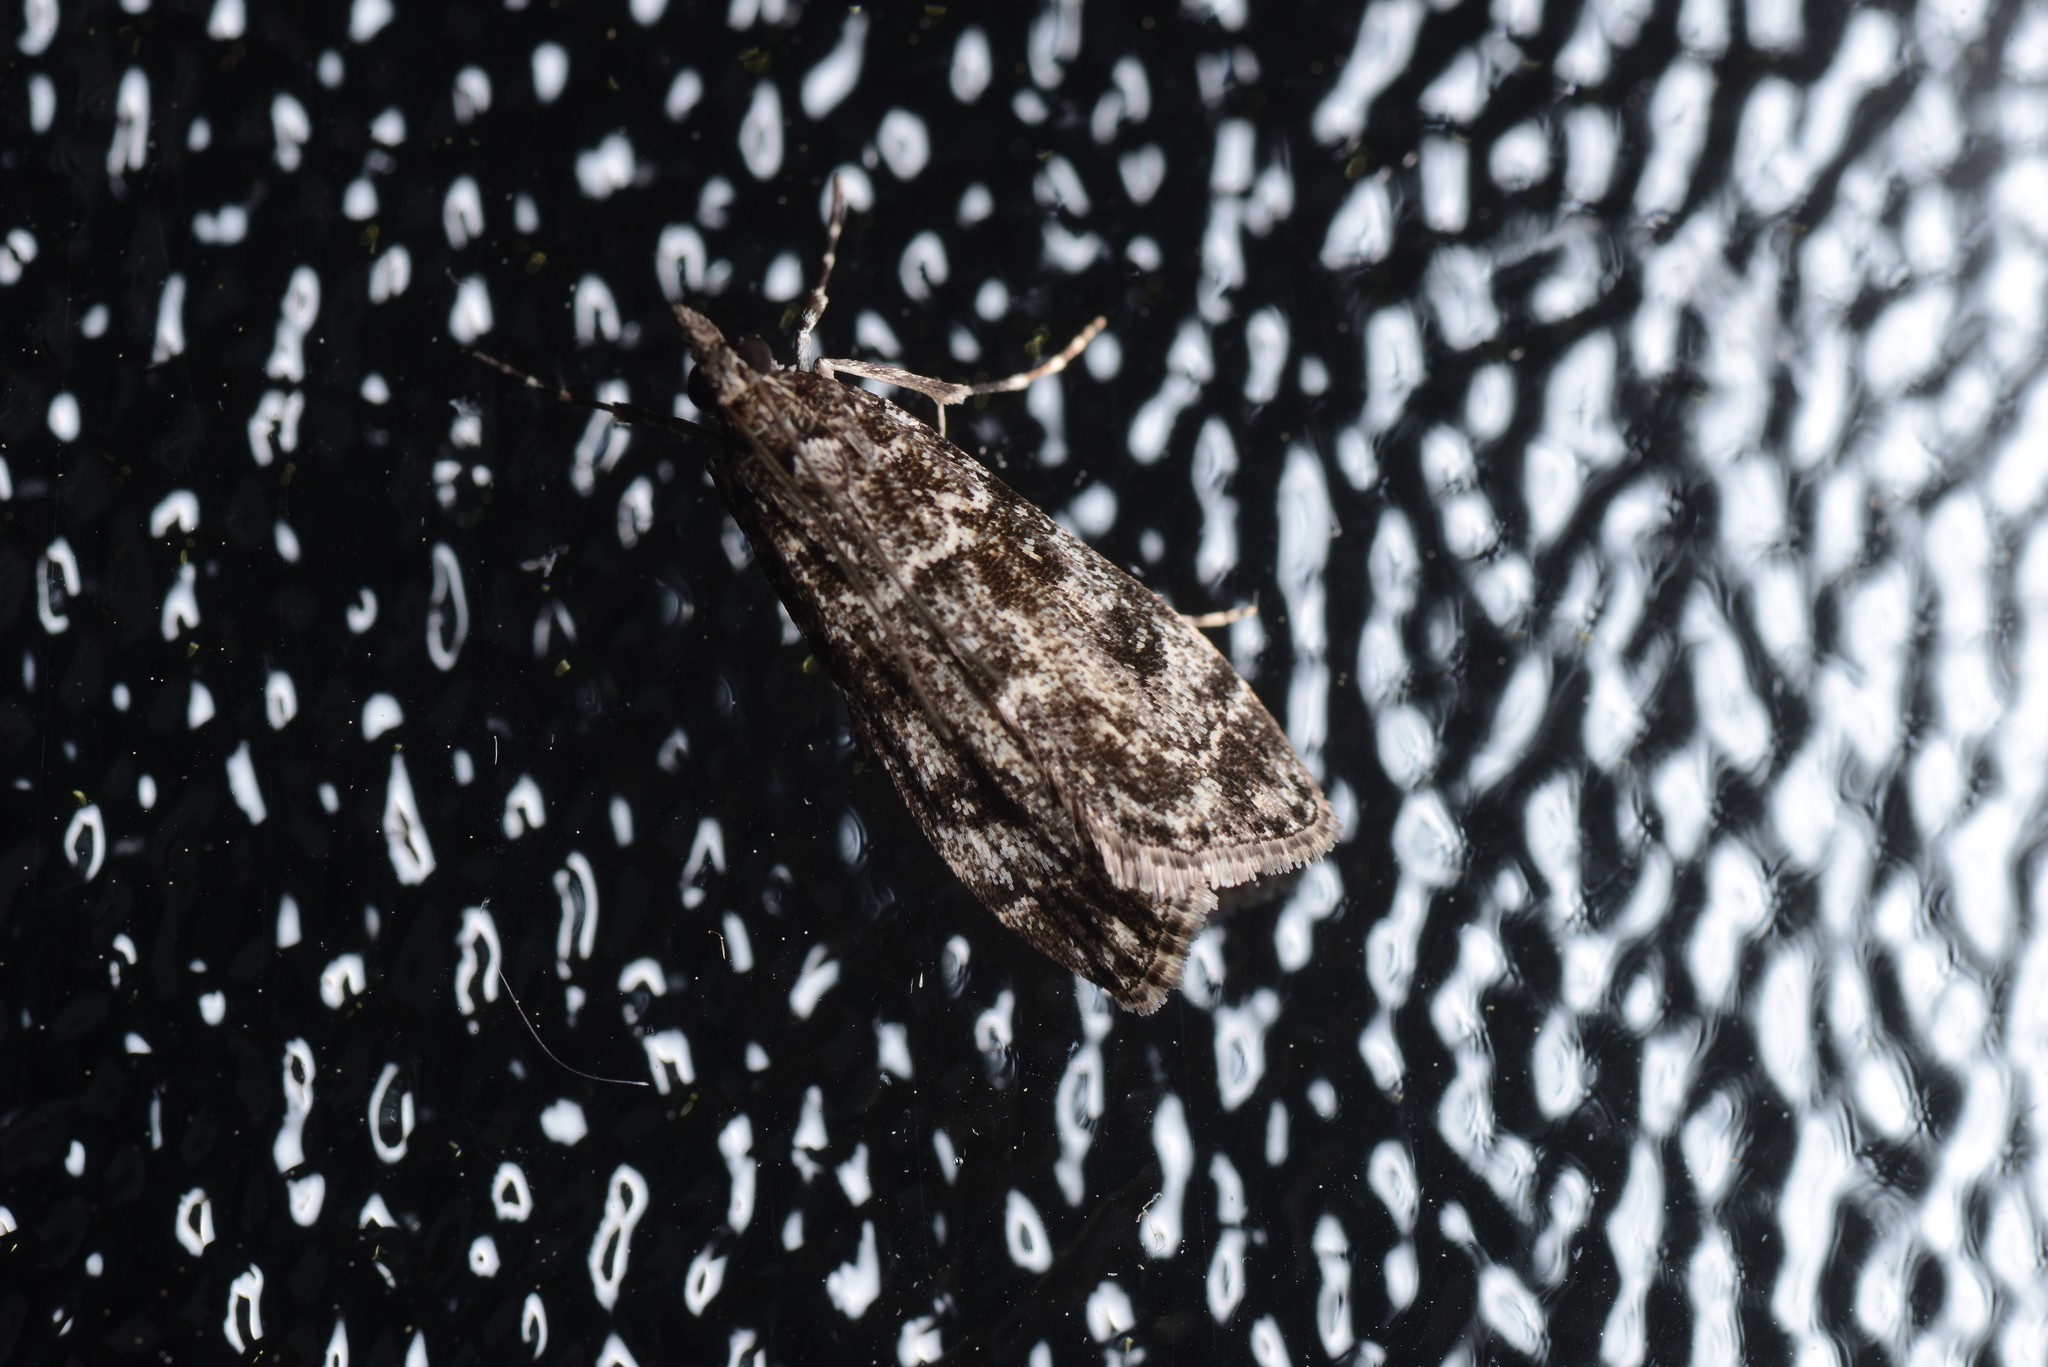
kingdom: Animalia
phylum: Arthropoda
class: Insecta
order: Lepidoptera
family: Crambidae
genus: Eudonia
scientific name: Eudonia philerga
